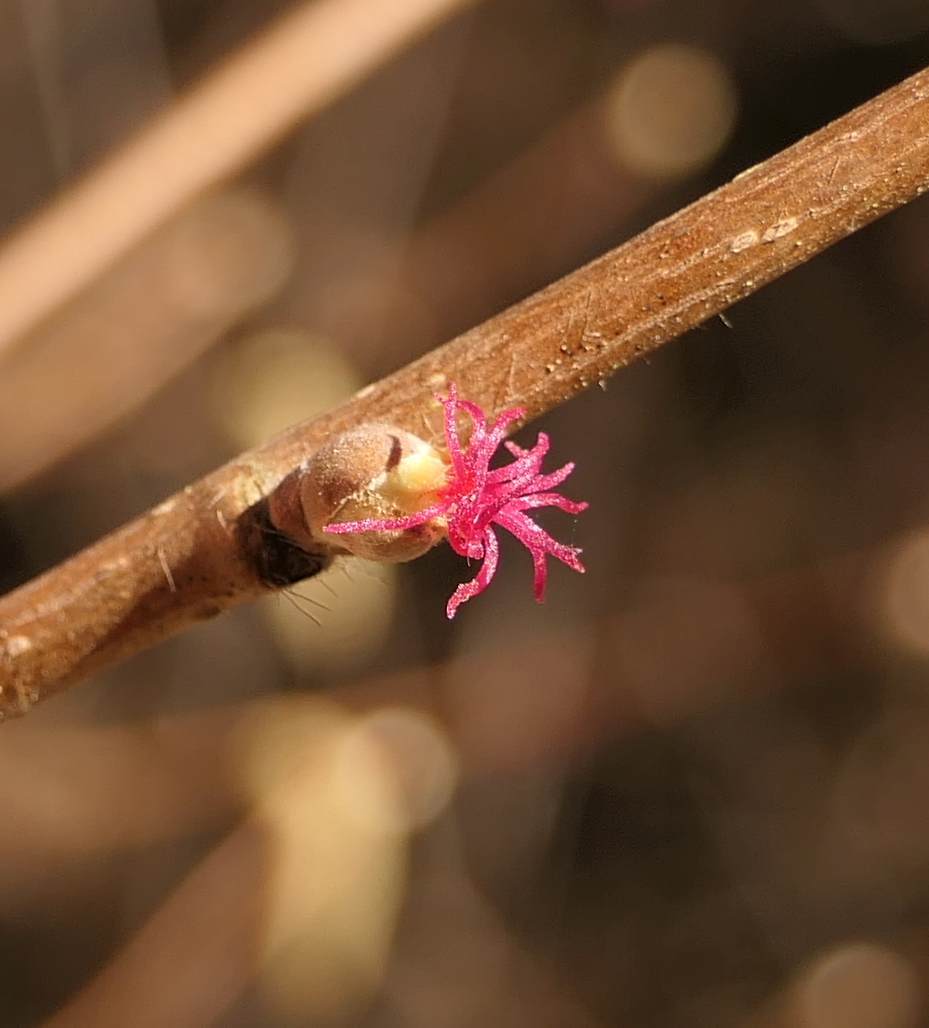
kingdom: Plantae
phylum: Tracheophyta
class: Magnoliopsida
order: Fagales
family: Betulaceae
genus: Corylus
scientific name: Corylus cornuta
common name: Beaked hazel
